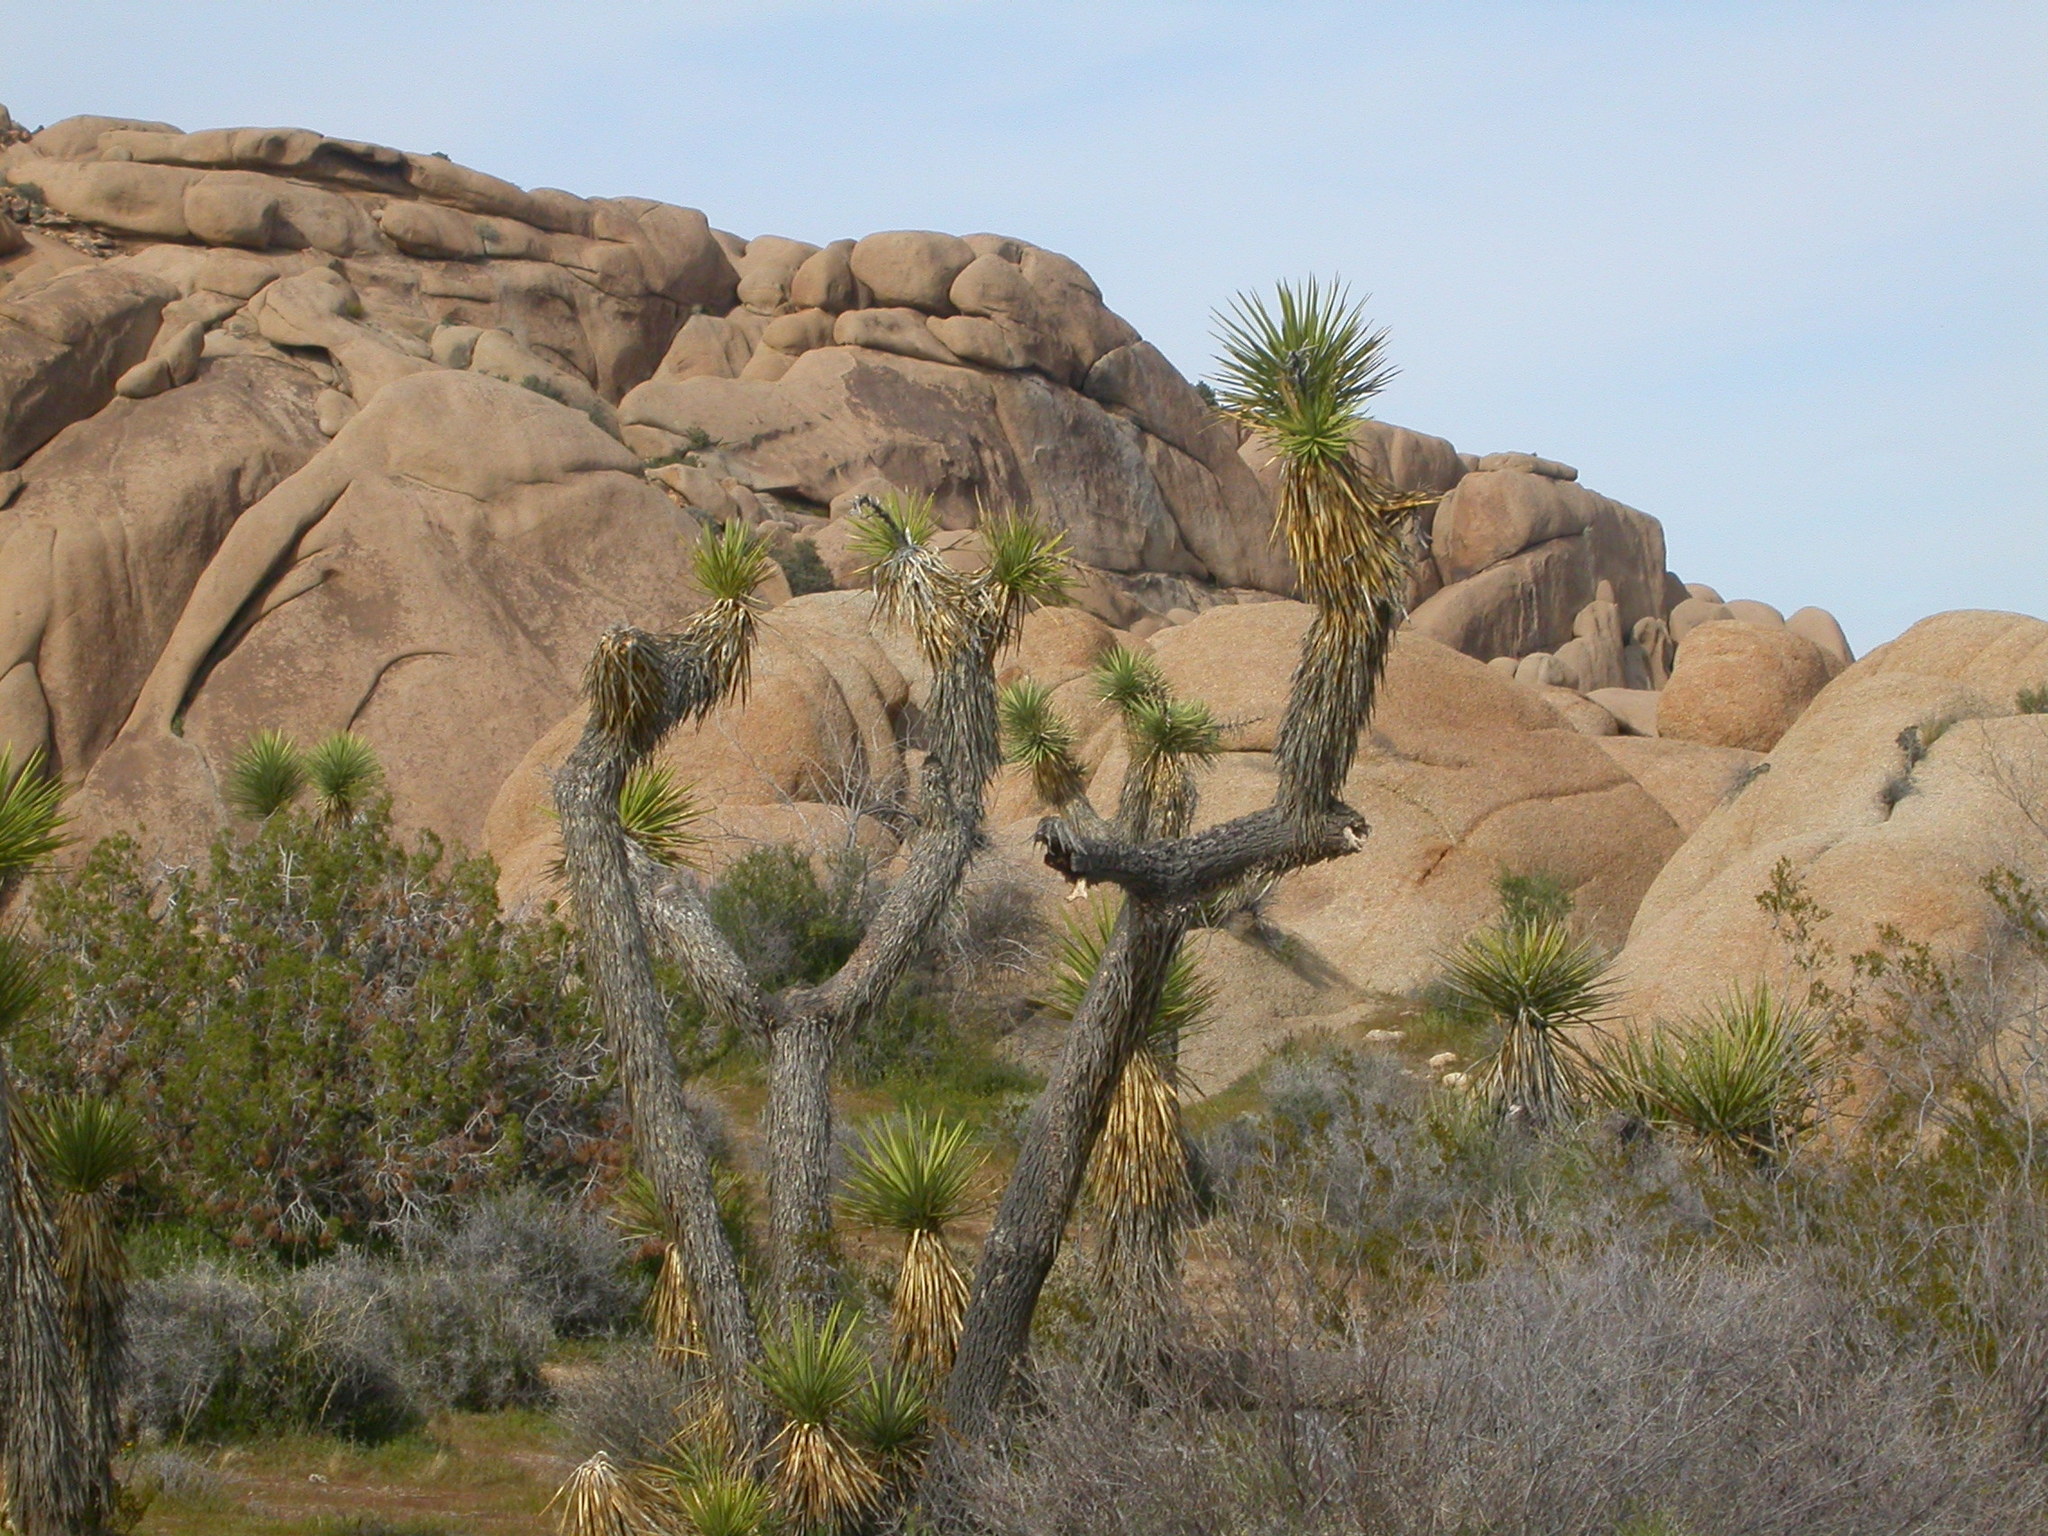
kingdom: Plantae
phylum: Tracheophyta
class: Liliopsida
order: Asparagales
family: Asparagaceae
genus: Yucca
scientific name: Yucca brevifolia
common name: Joshua tree
